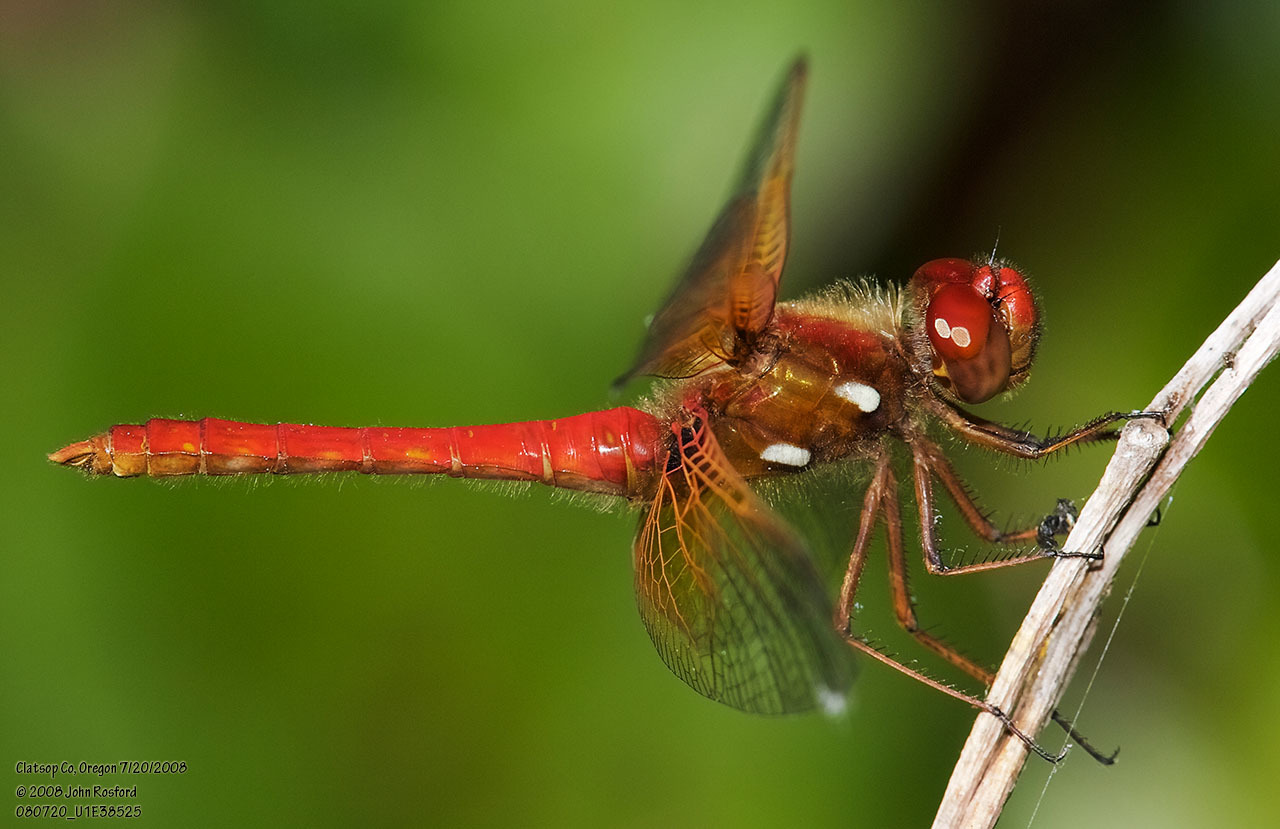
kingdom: Animalia
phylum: Arthropoda
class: Insecta
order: Odonata
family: Libellulidae
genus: Sympetrum
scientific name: Sympetrum illotum
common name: Cardinal meadowhawk
